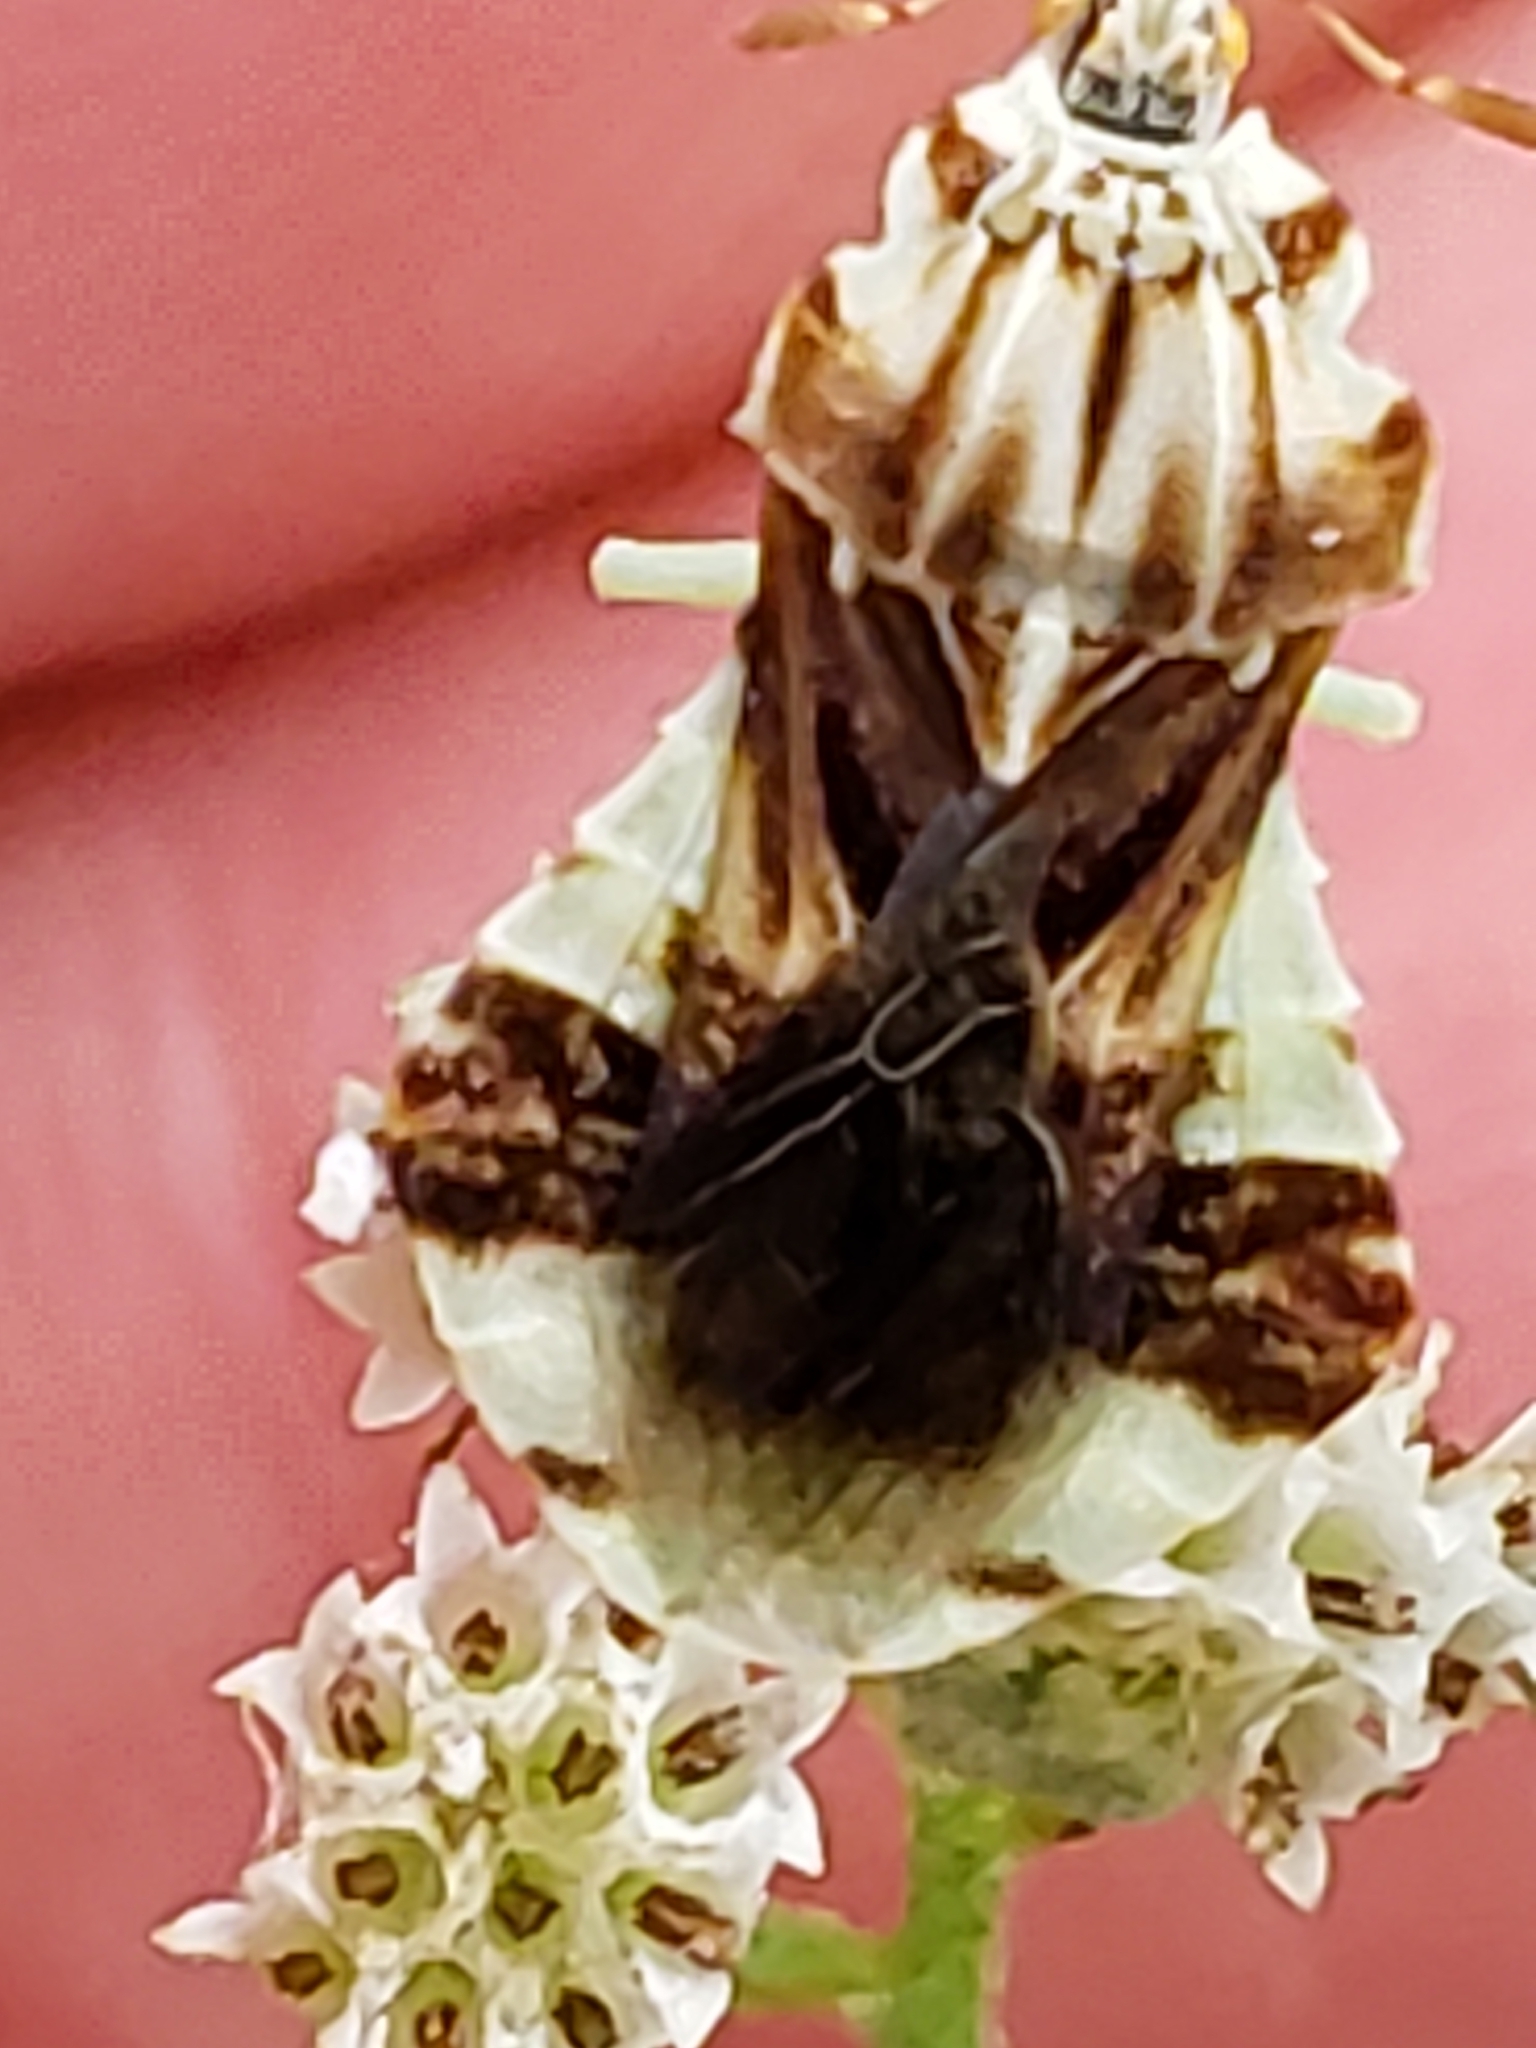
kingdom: Animalia
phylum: Arthropoda
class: Insecta
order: Hemiptera
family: Reduviidae
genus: Phymata
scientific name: Phymata fasciata
